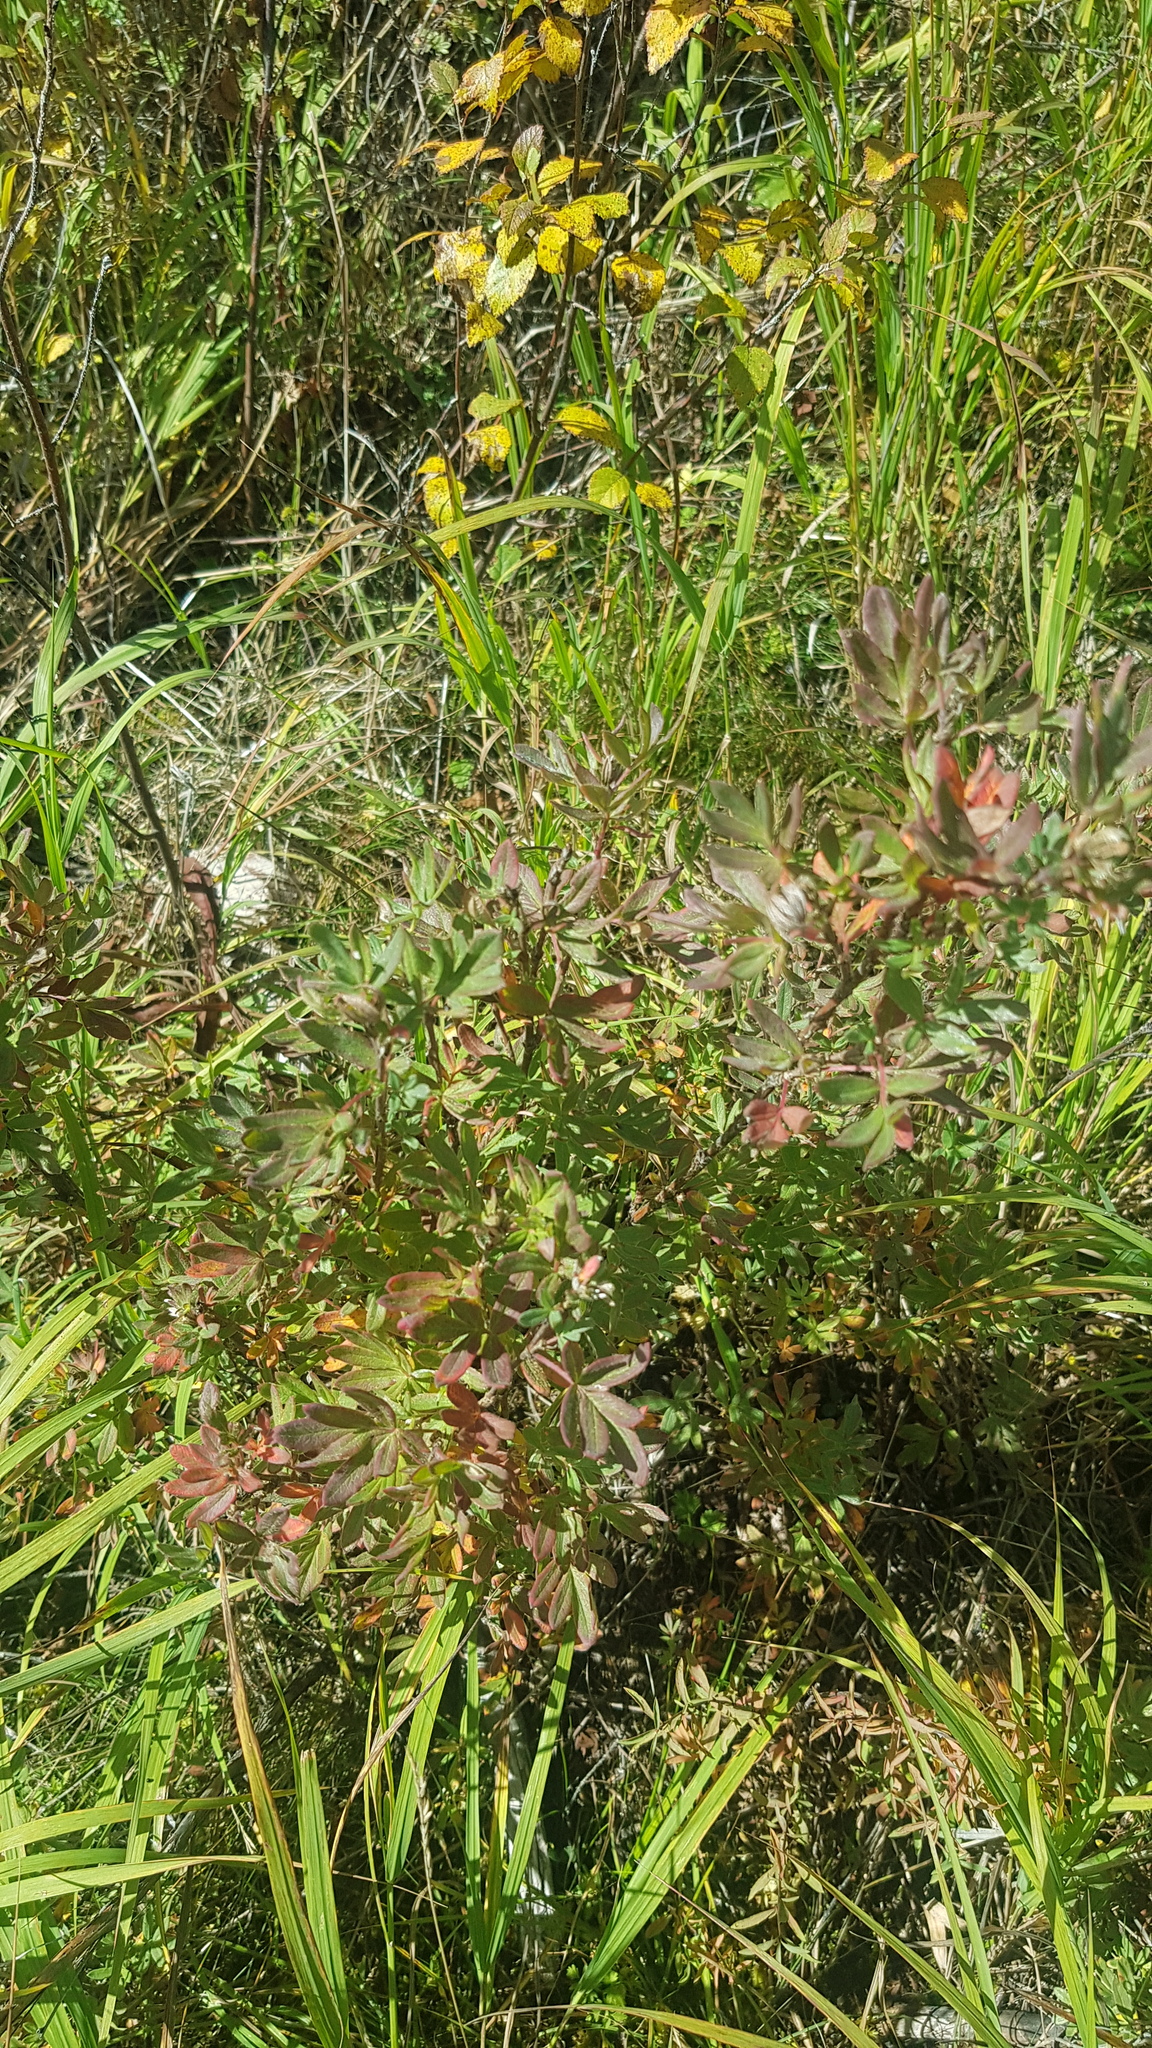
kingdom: Plantae
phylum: Tracheophyta
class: Magnoliopsida
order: Rosales
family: Rosaceae
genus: Dasiphora
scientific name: Dasiphora fruticosa
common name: Shrubby cinquefoil
